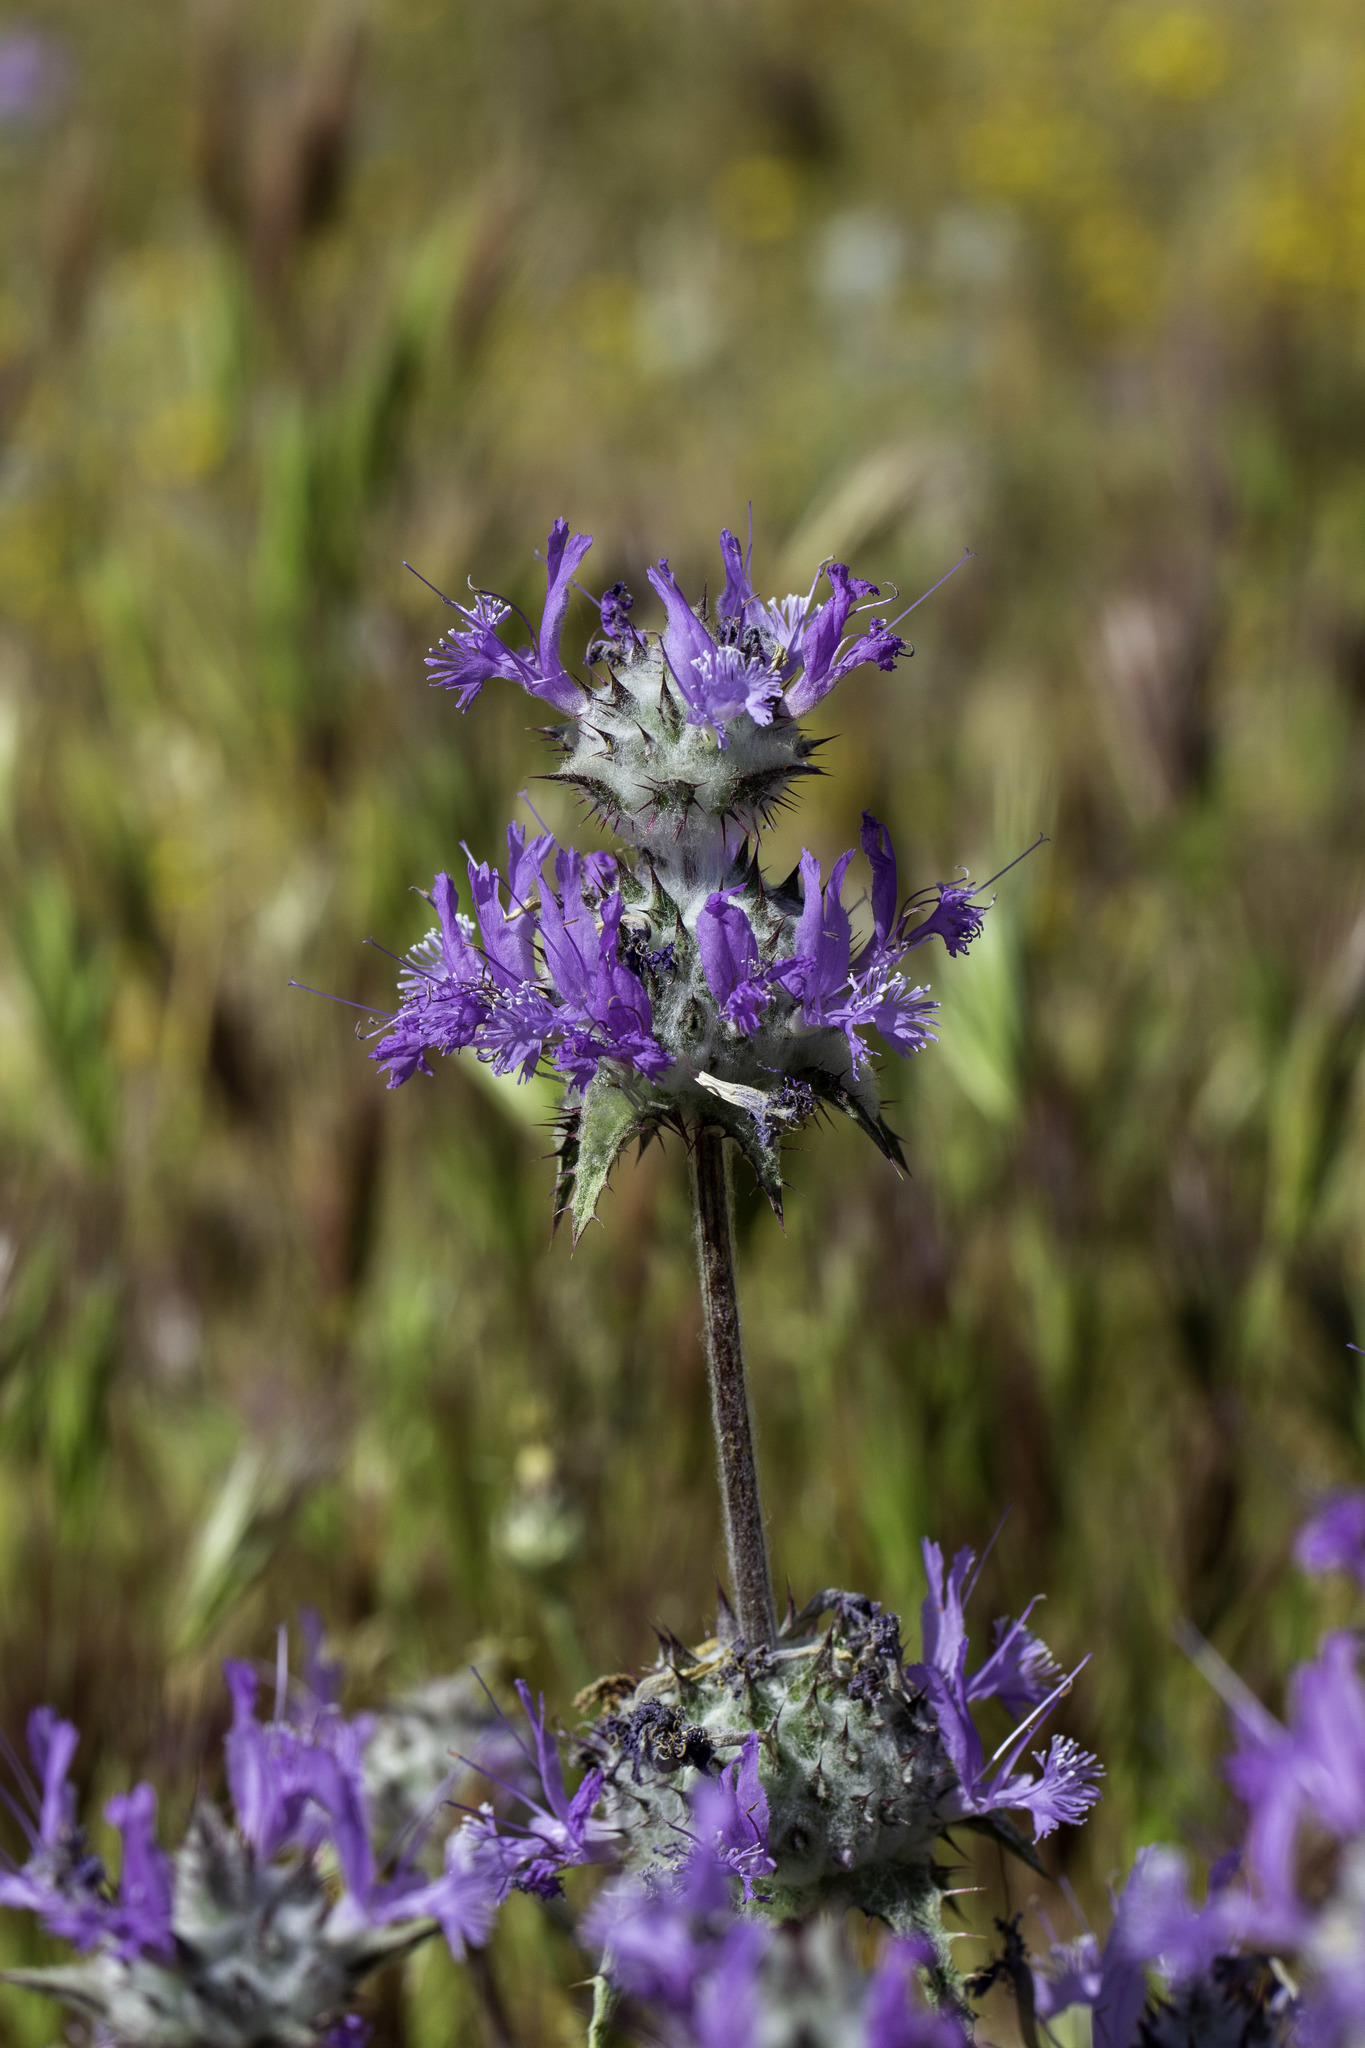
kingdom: Plantae
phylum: Tracheophyta
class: Magnoliopsida
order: Lamiales
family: Lamiaceae
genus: Salvia
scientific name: Salvia carduacea
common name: Thistle sage
